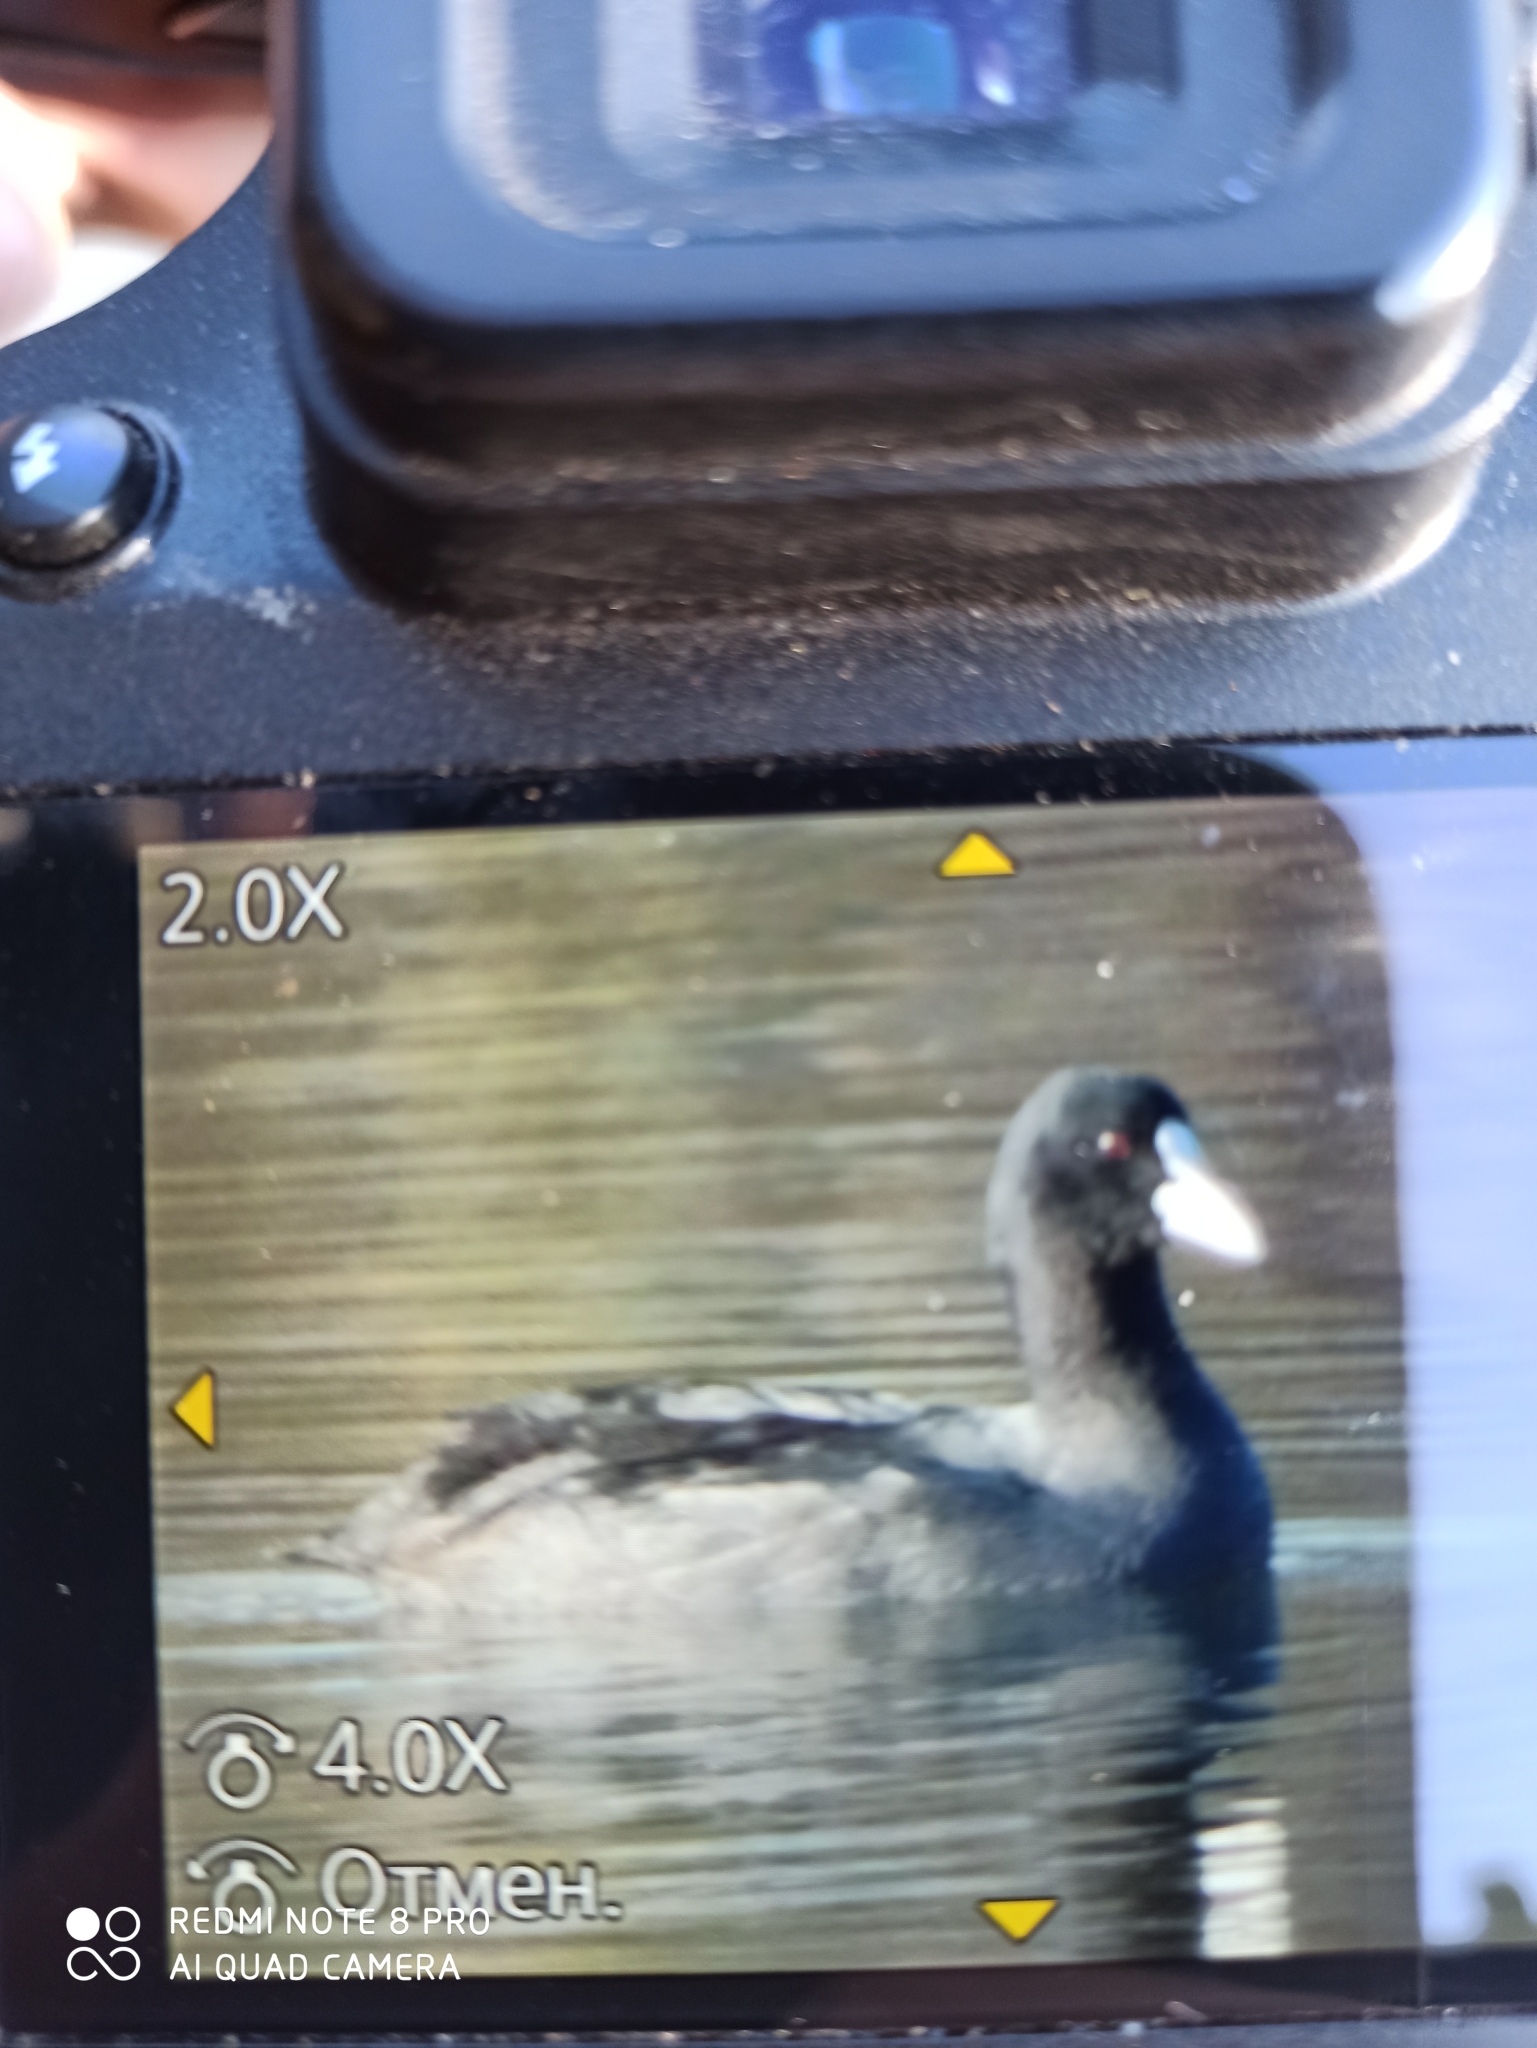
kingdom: Animalia
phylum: Chordata
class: Aves
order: Gruiformes
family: Rallidae
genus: Fulica
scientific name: Fulica atra
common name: Eurasian coot
